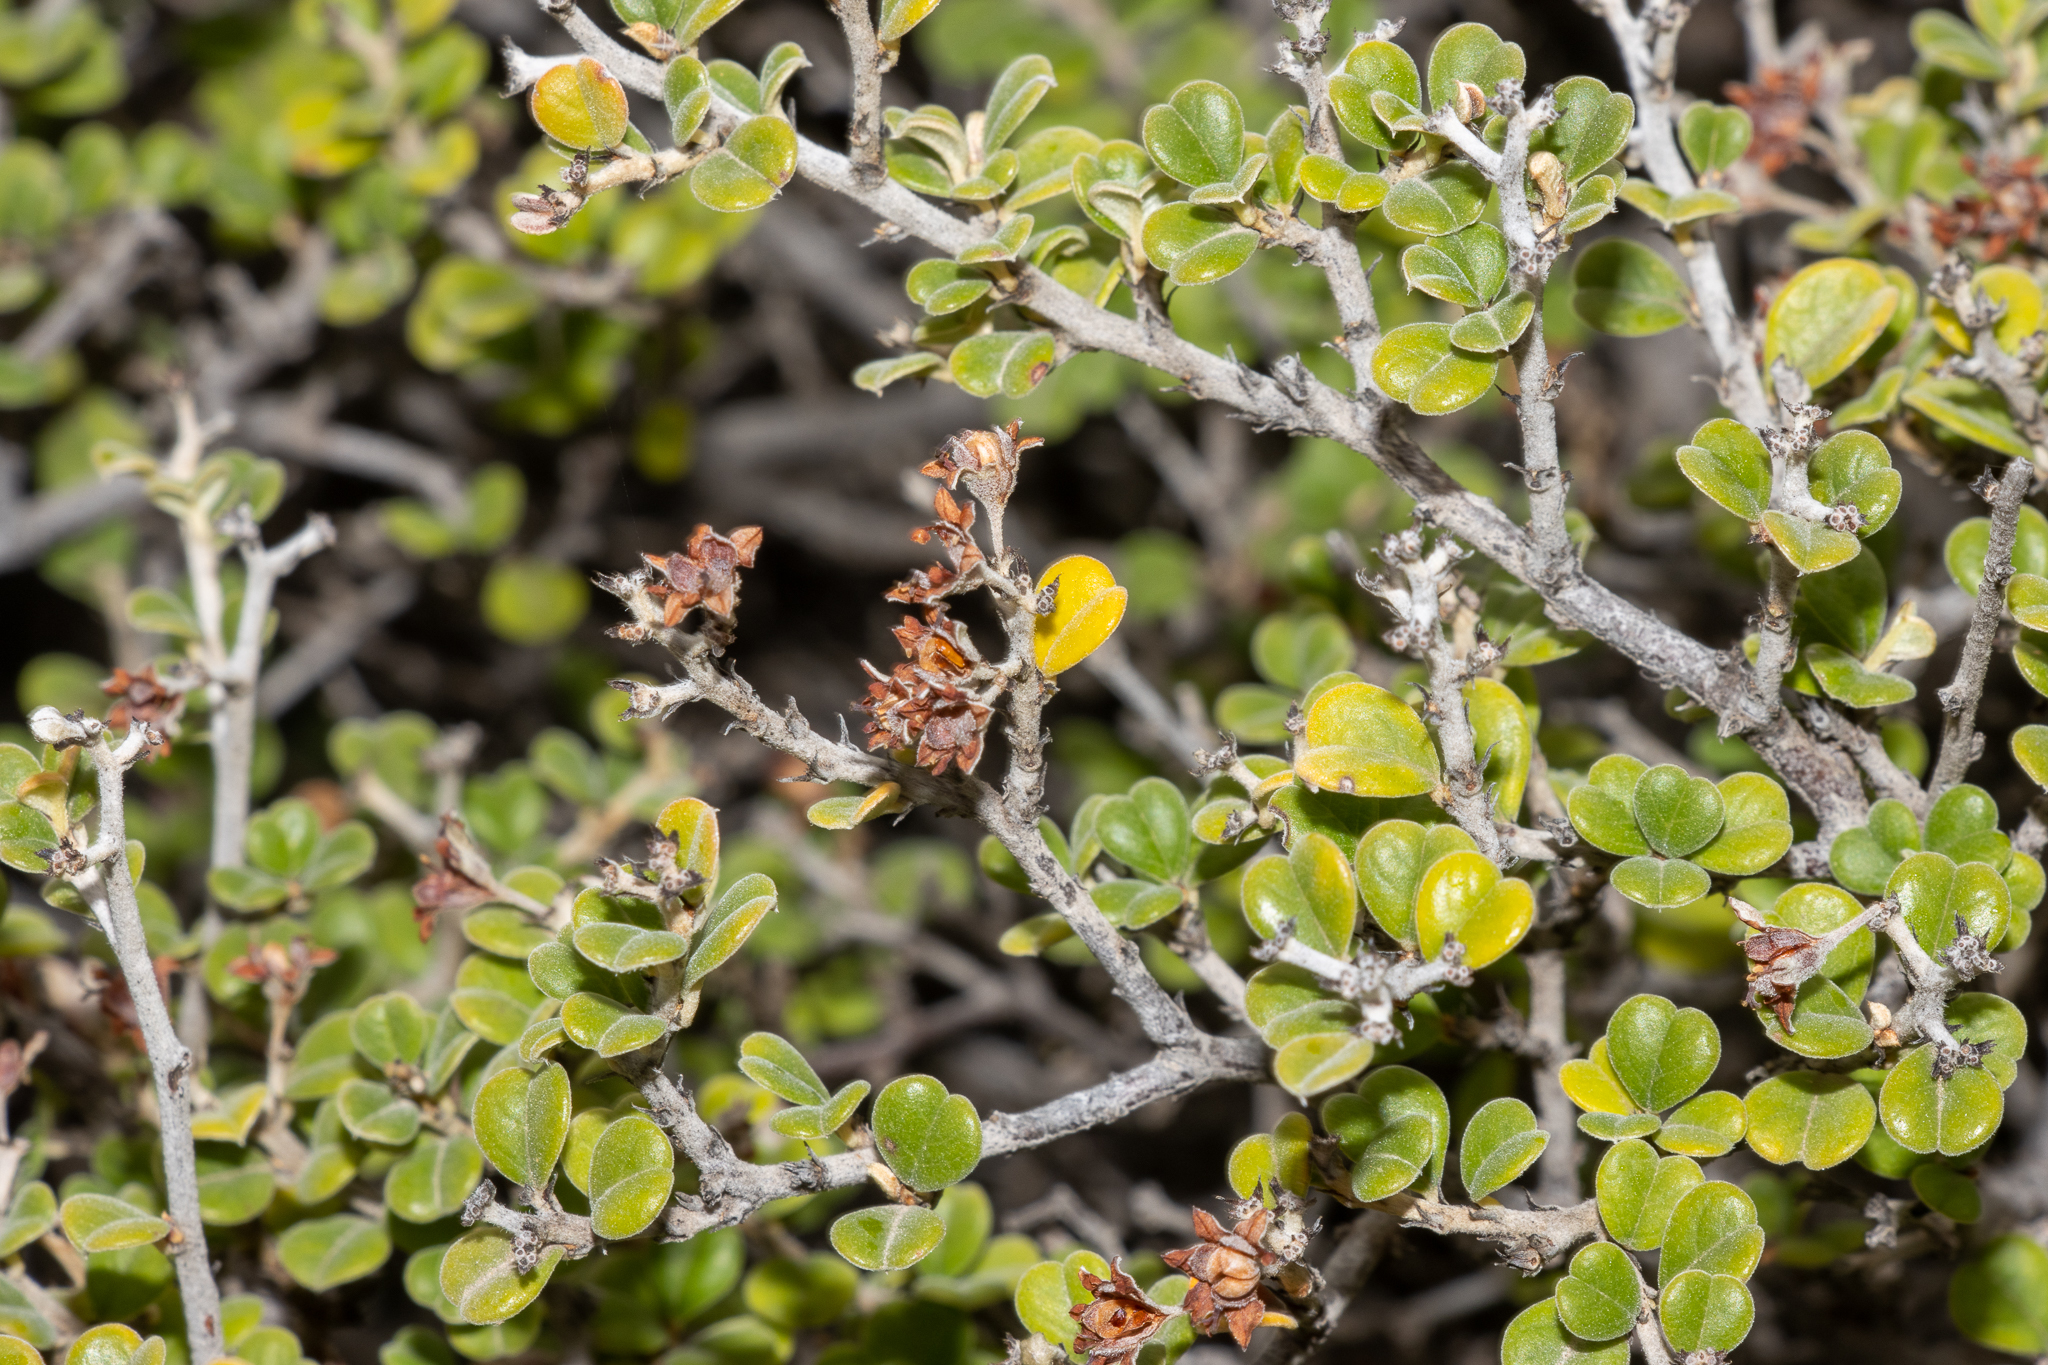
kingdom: Plantae
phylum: Tracheophyta
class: Magnoliopsida
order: Rosales
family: Rhamnaceae
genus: Pomaderris
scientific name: Pomaderris forrestiana
